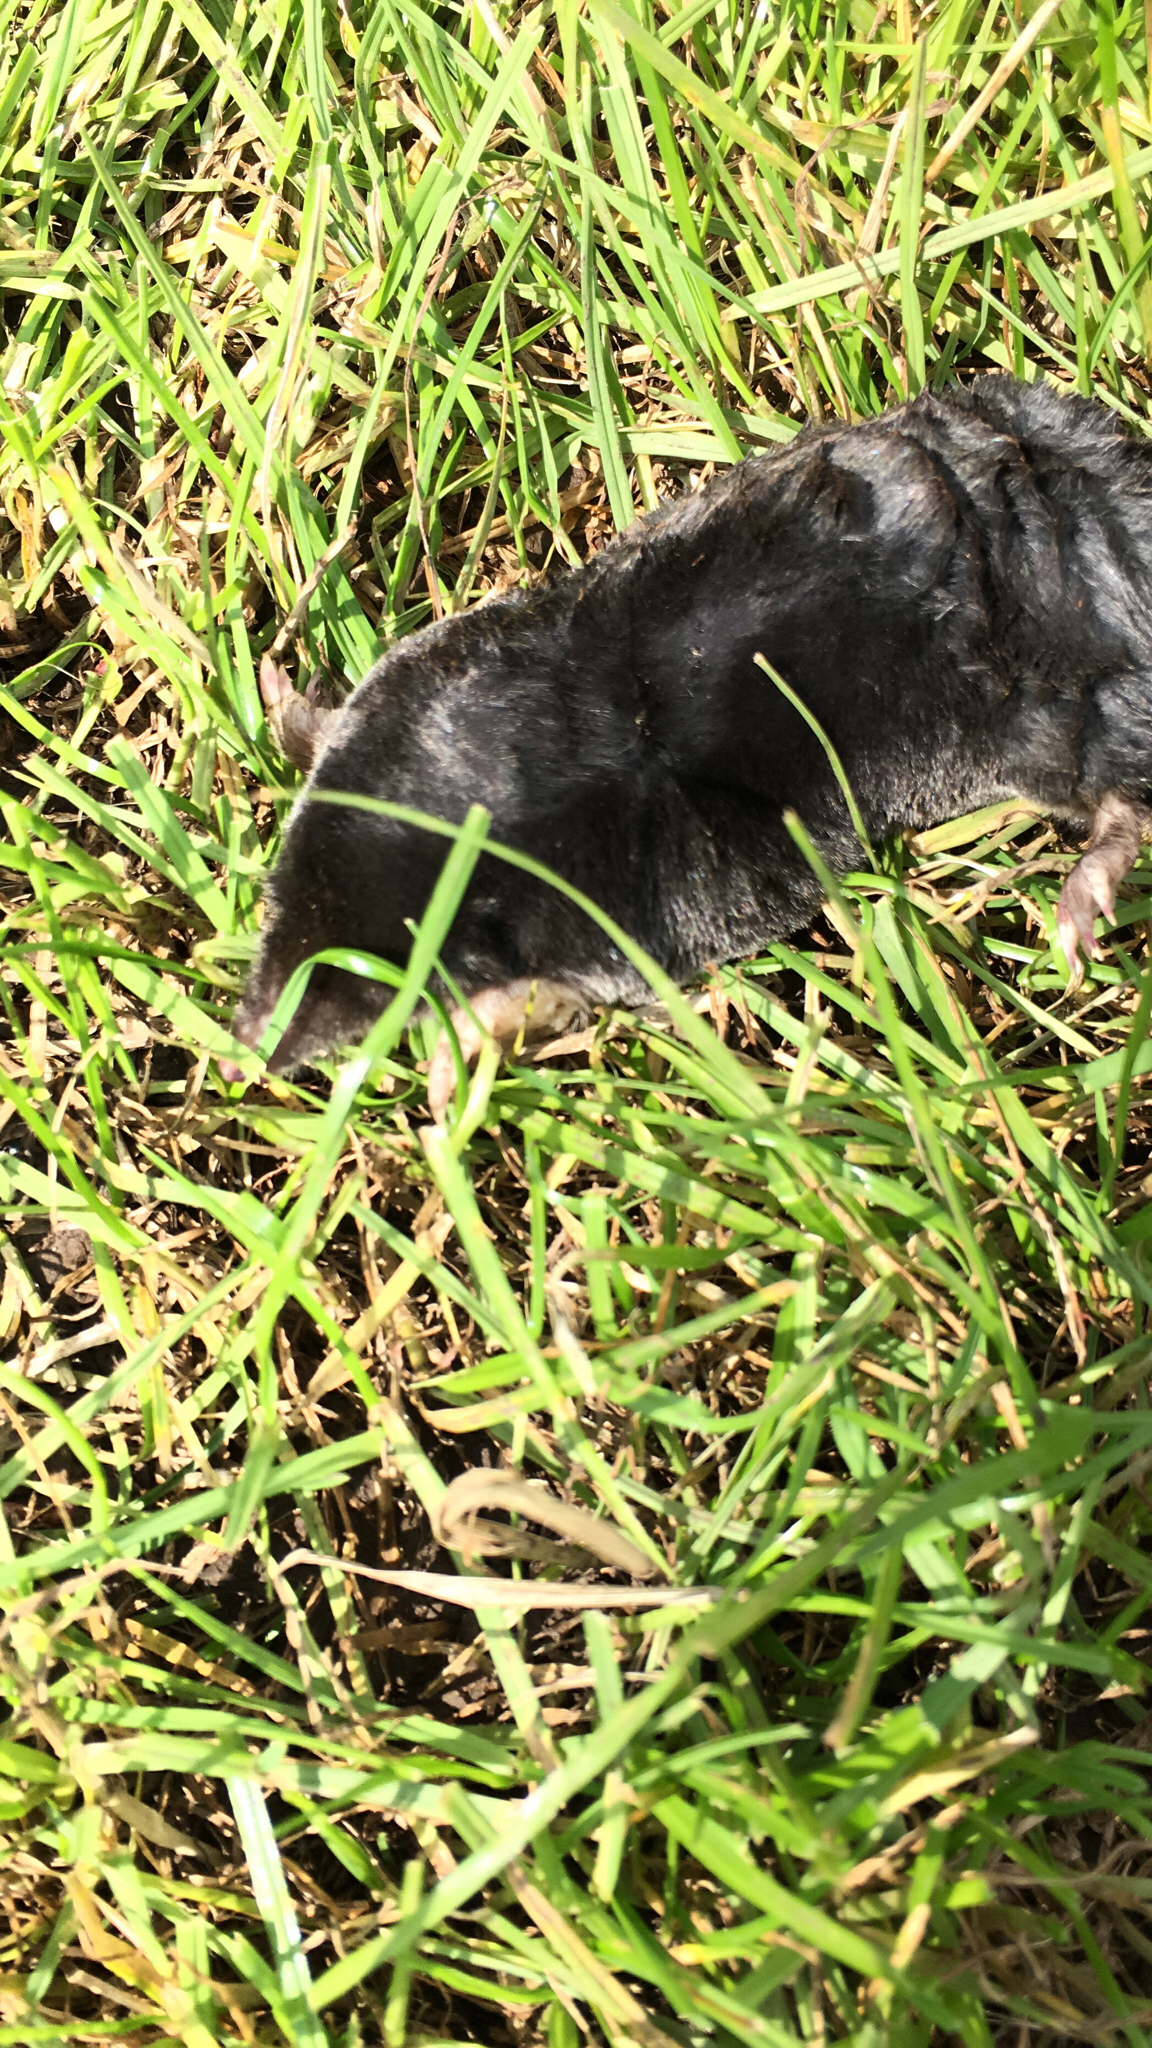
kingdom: Animalia
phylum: Chordata
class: Mammalia
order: Soricomorpha
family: Talpidae
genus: Talpa
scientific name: Talpa europaea
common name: European mole
